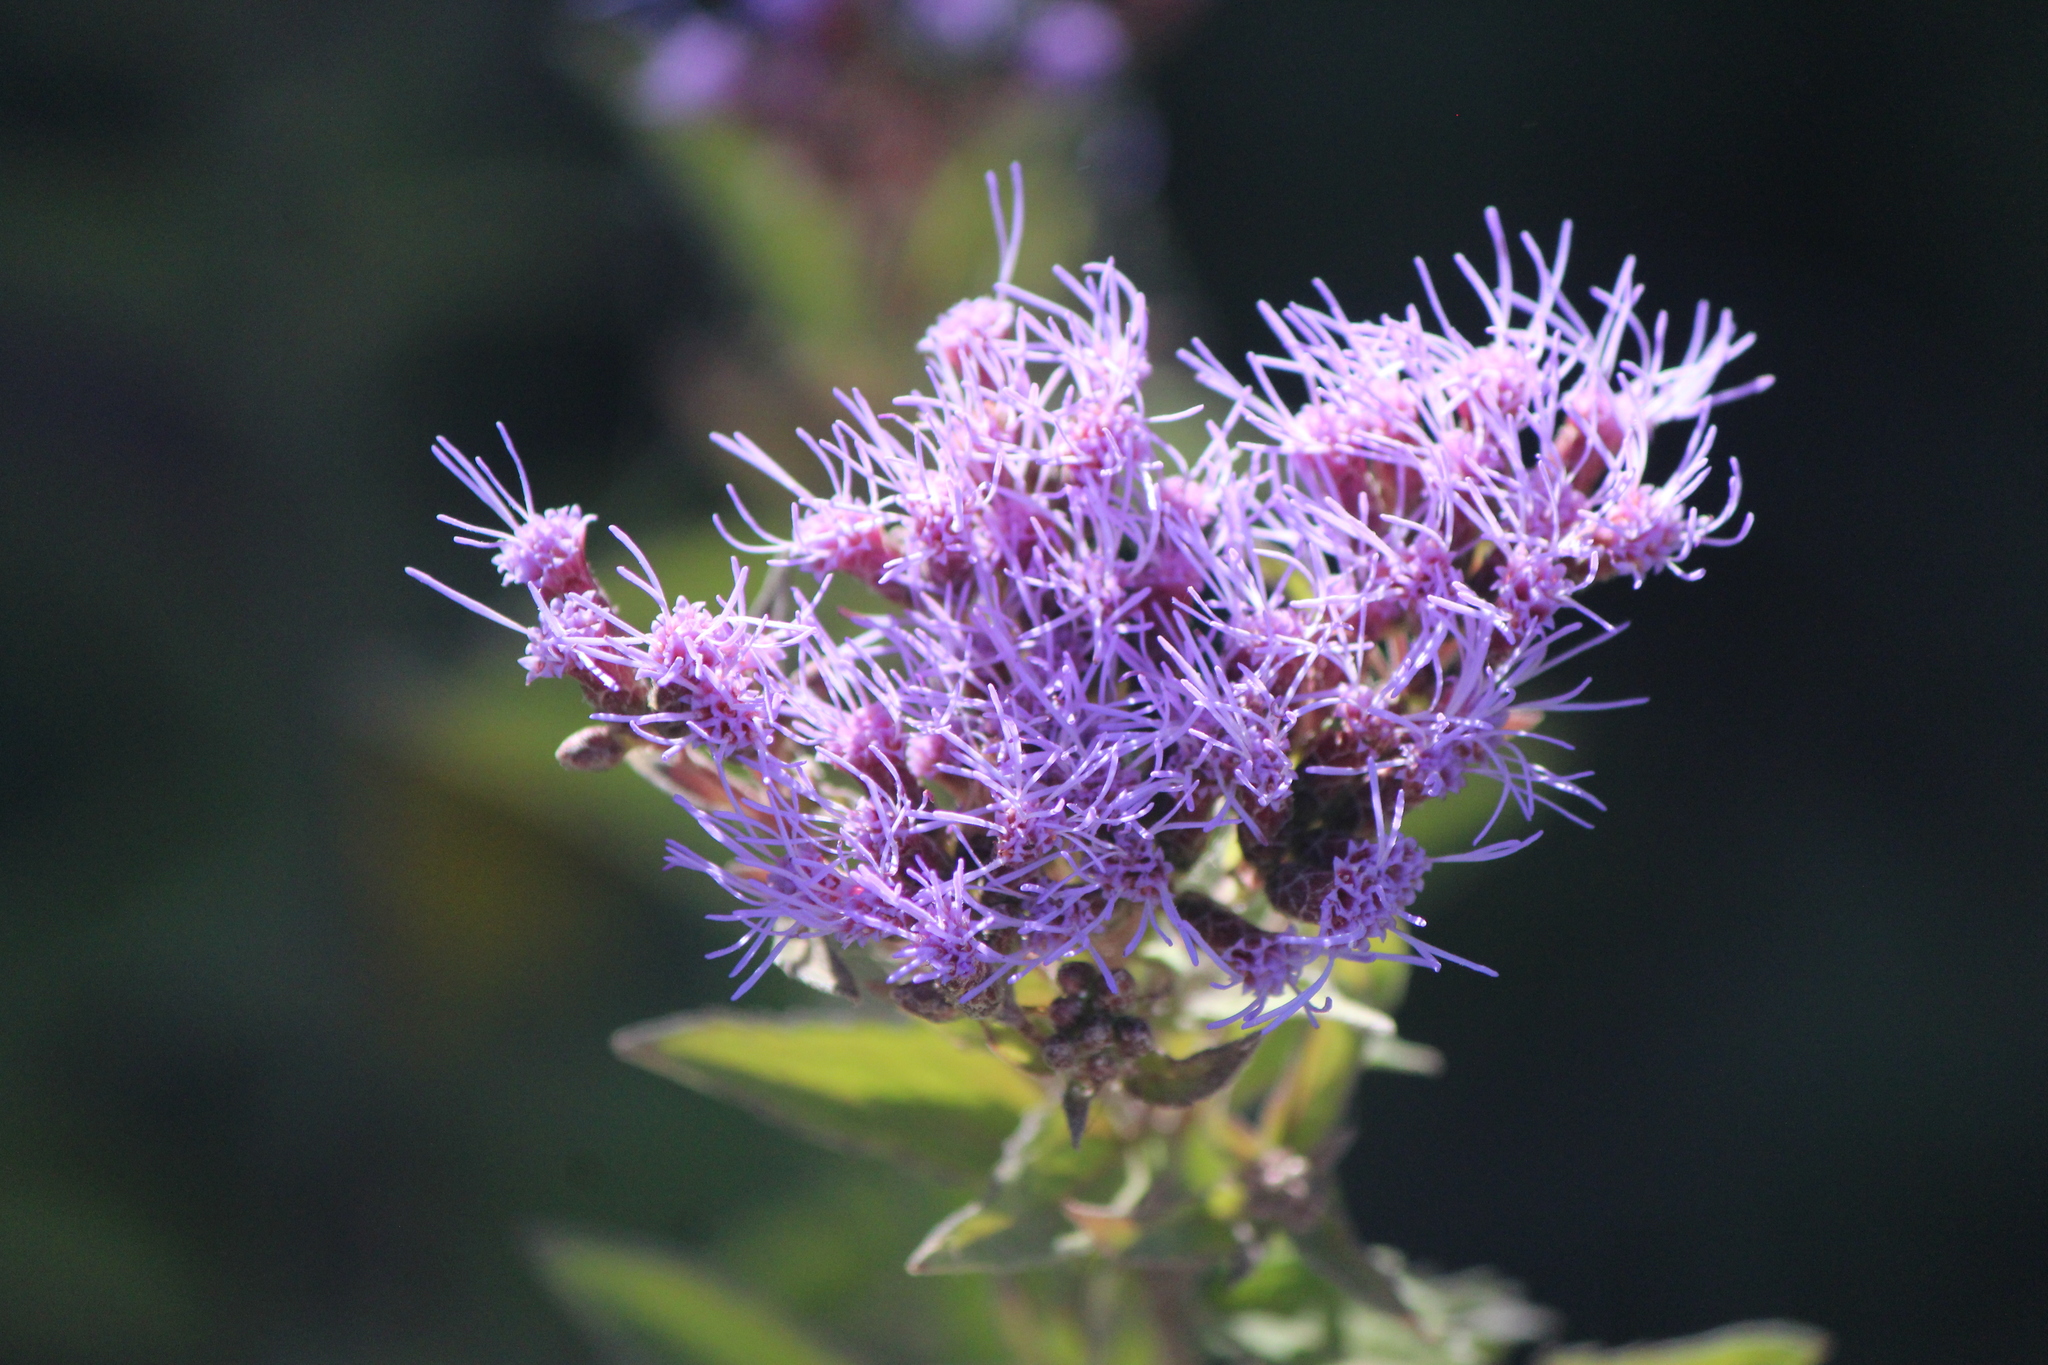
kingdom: Plantae
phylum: Tracheophyta
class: Magnoliopsida
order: Asterales
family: Asteraceae
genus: Chromolaena
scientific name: Chromolaena pulchella
